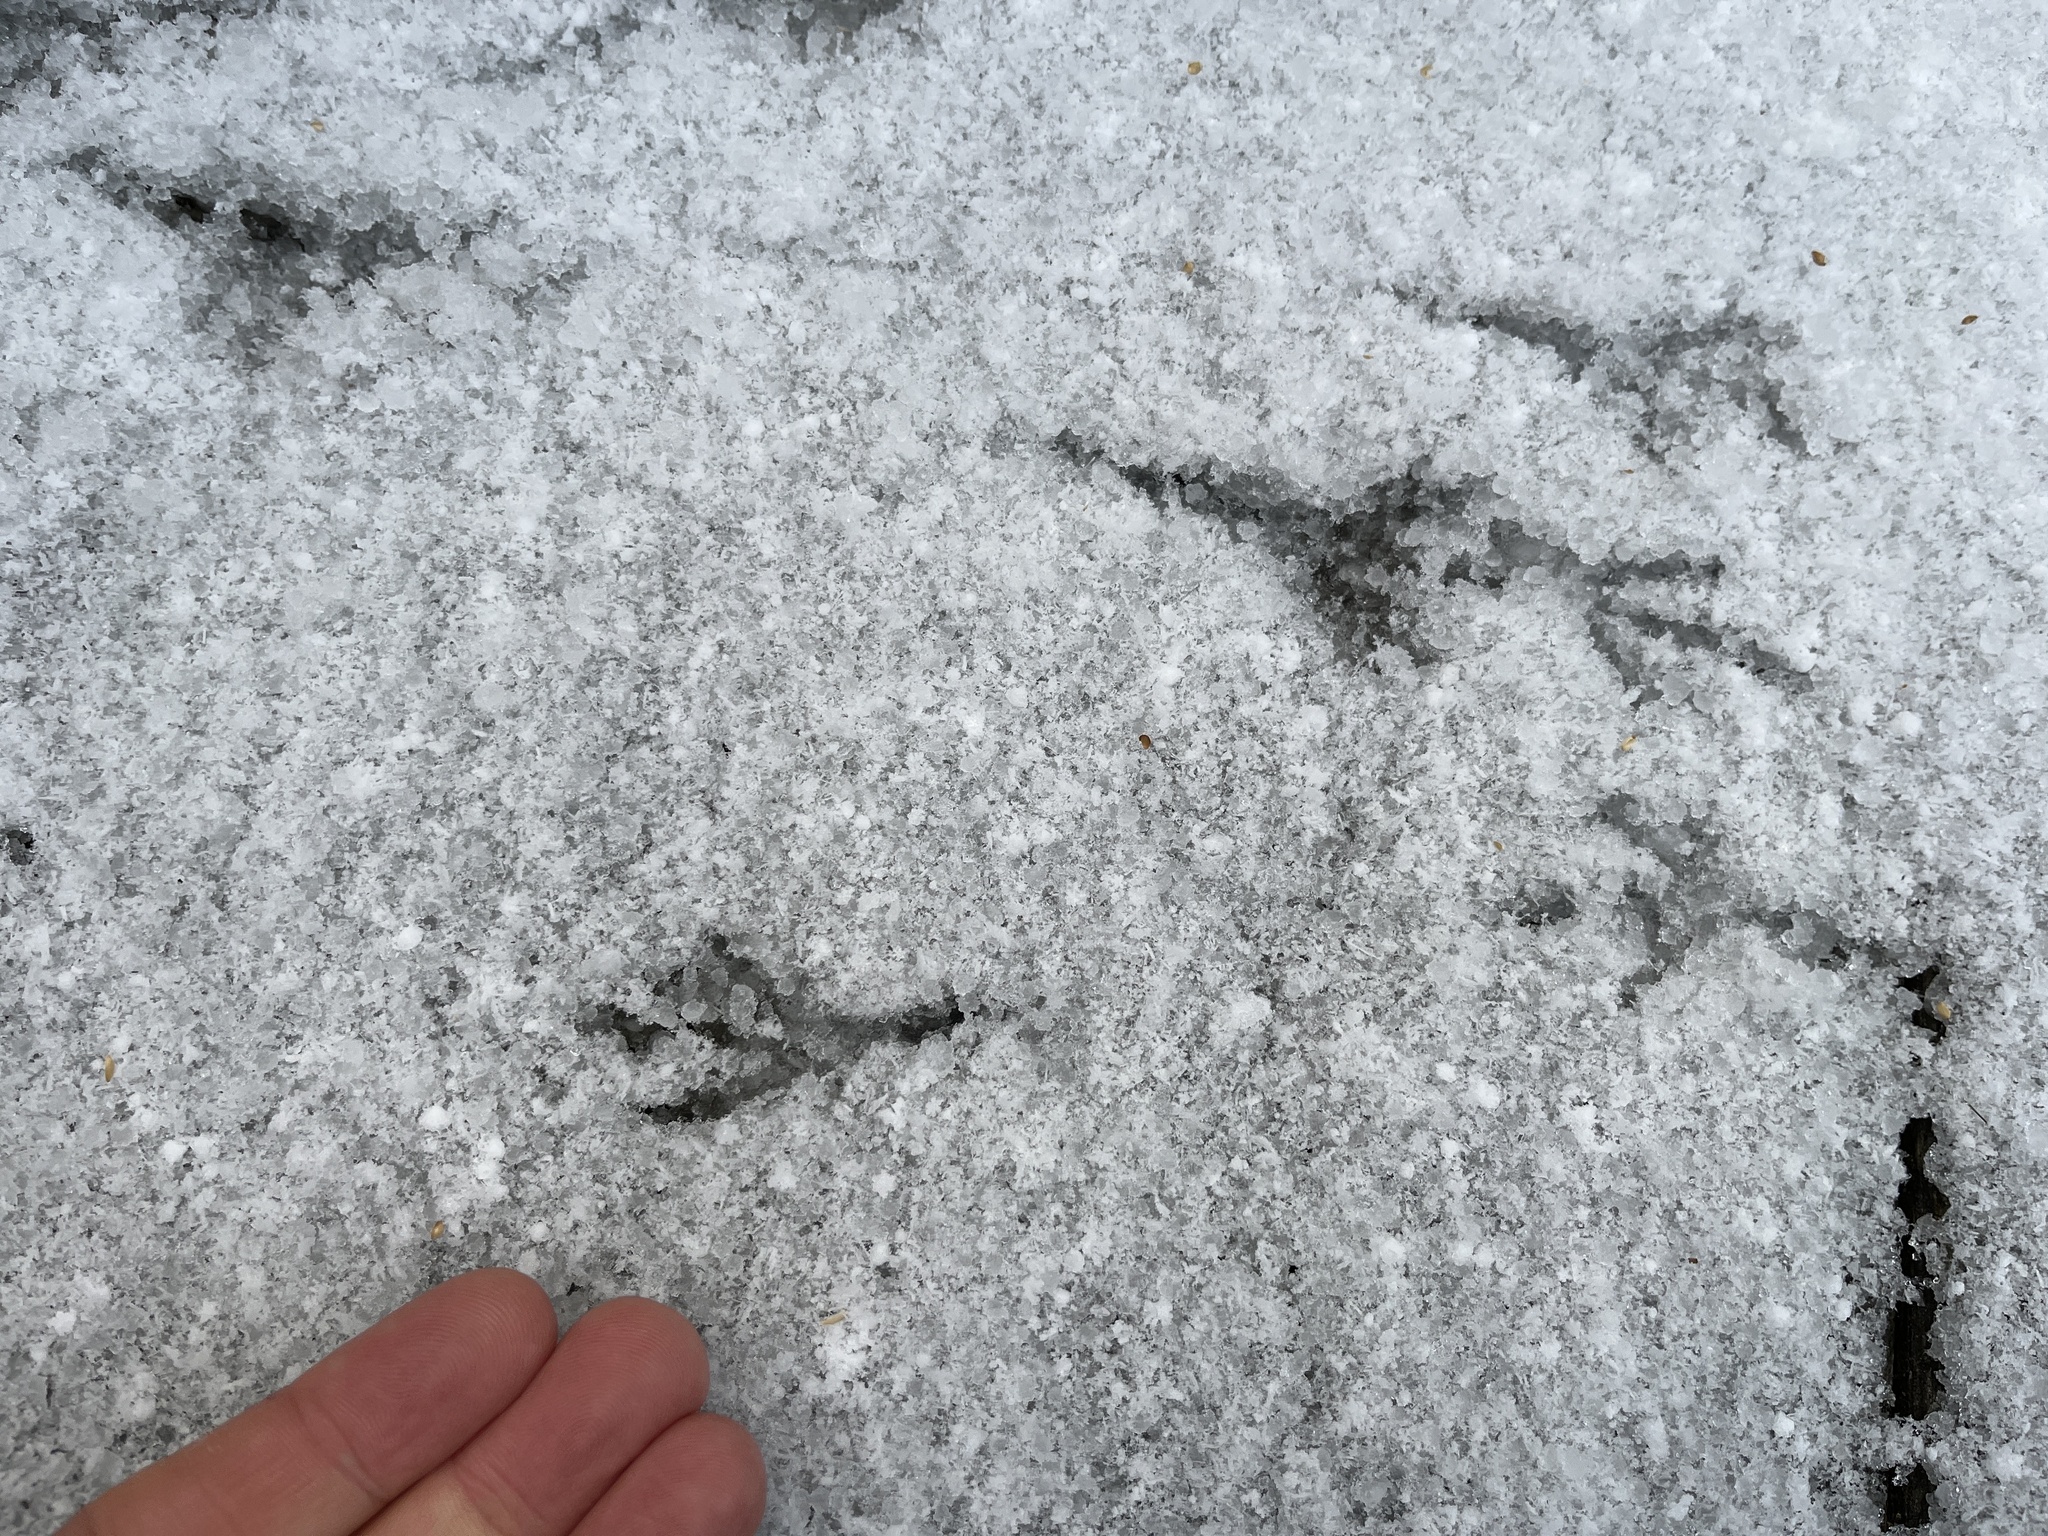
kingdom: Animalia
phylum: Chordata
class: Aves
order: Passeriformes
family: Turdidae
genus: Turdus
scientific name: Turdus merula
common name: Common blackbird
